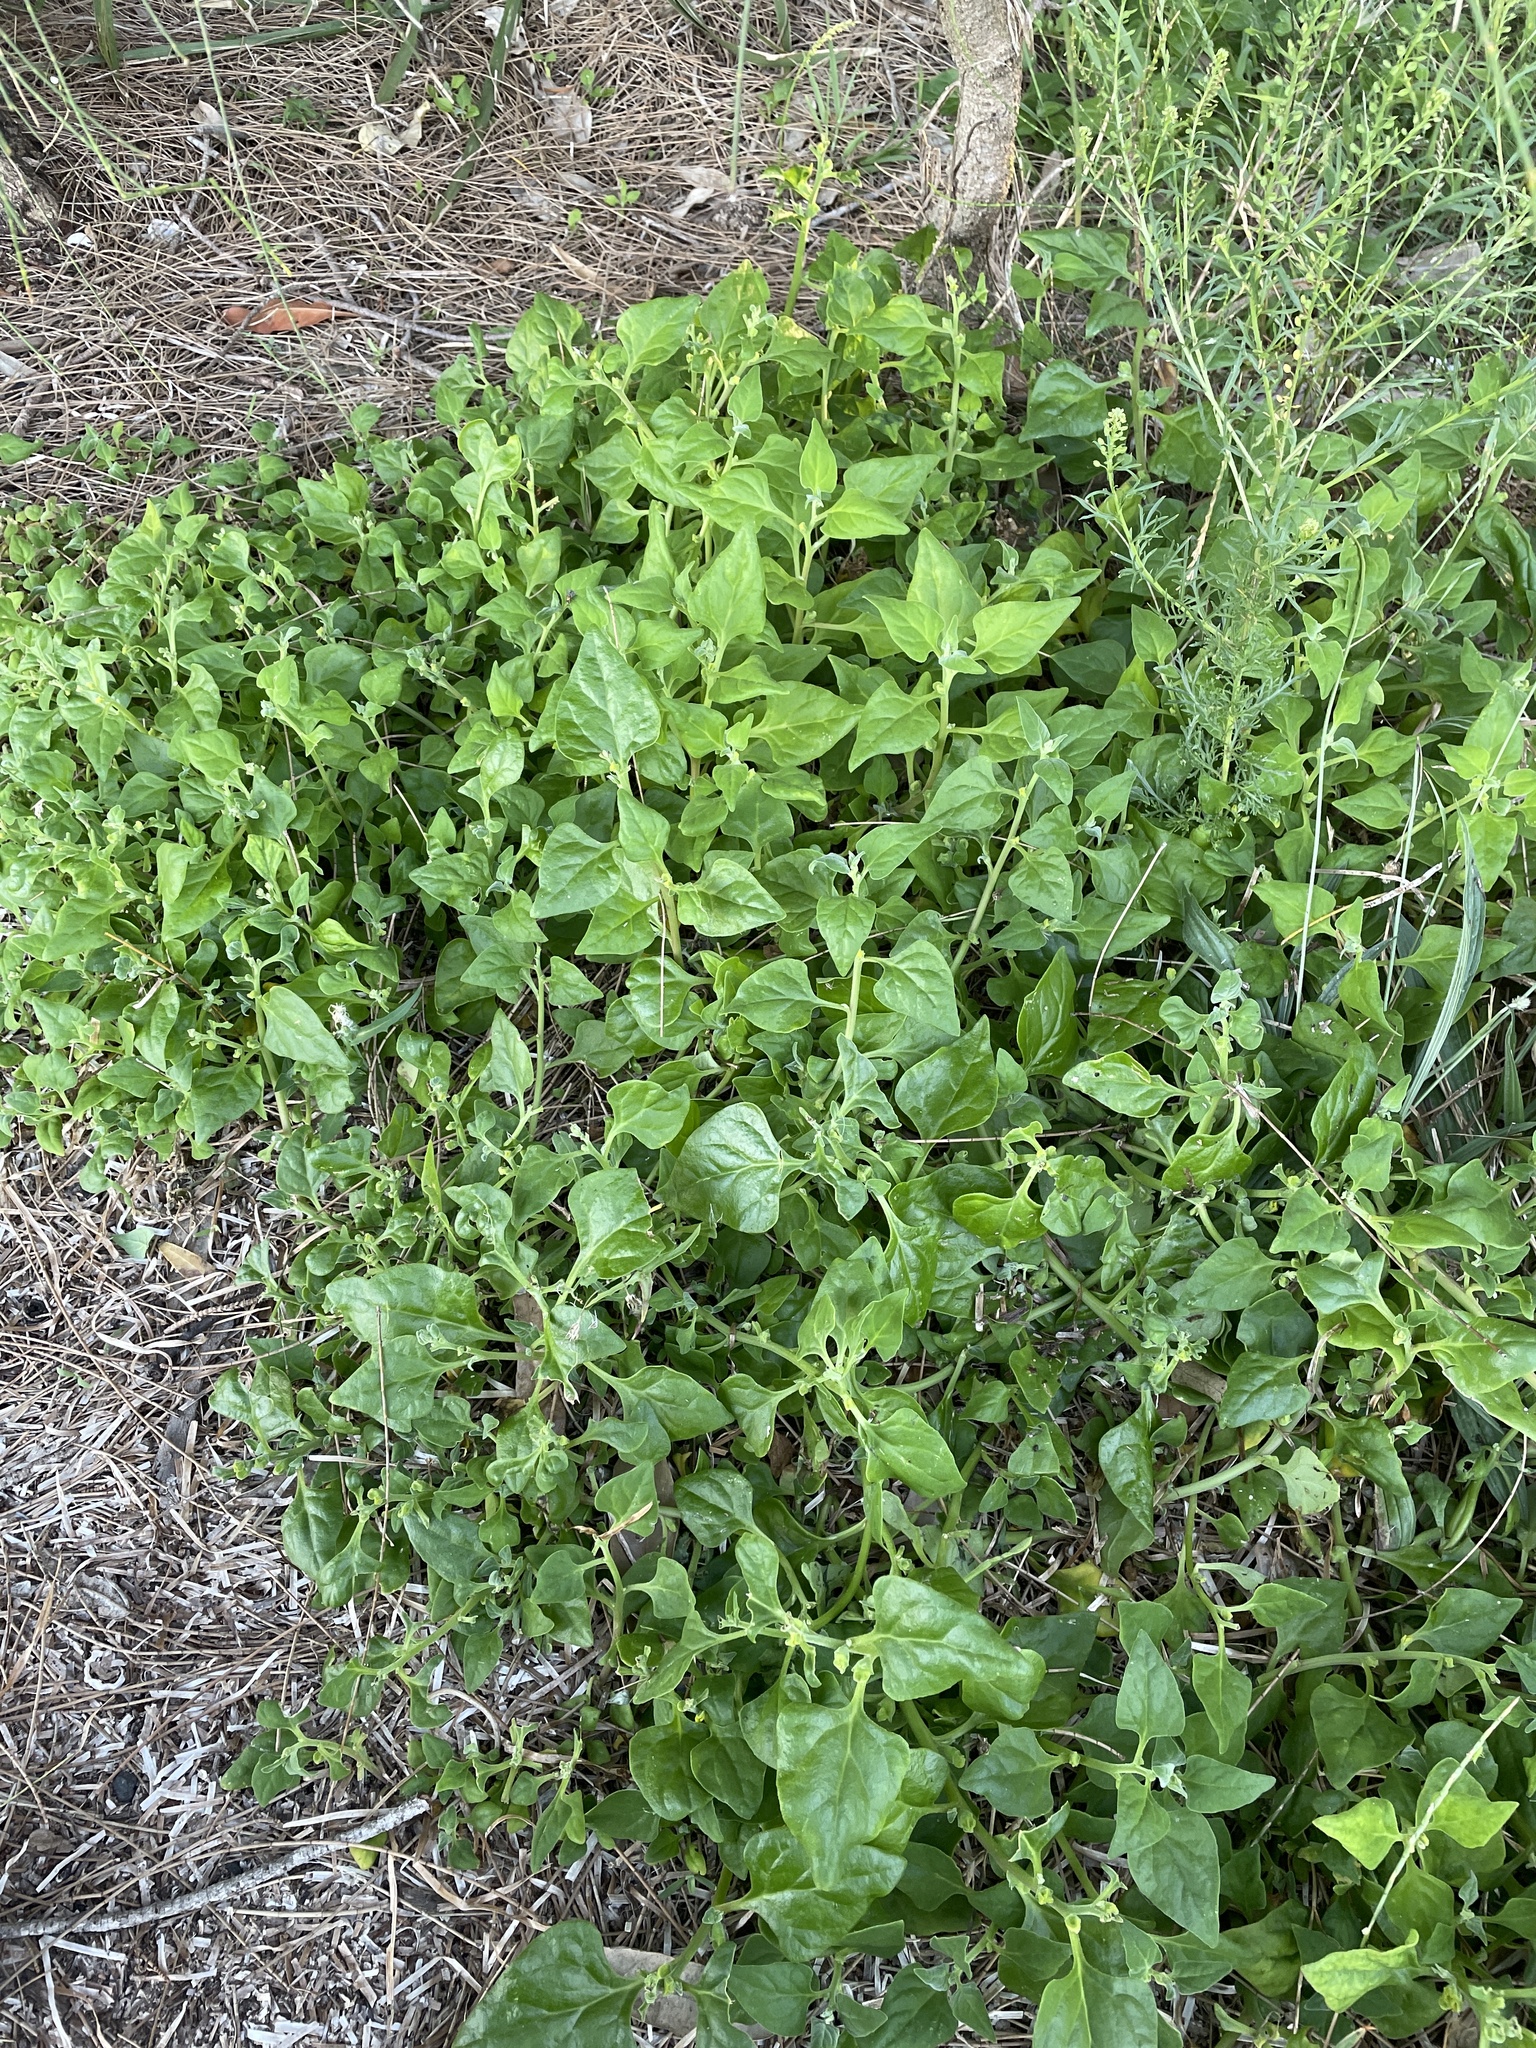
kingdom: Plantae
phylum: Tracheophyta
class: Magnoliopsida
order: Caryophyllales
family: Aizoaceae
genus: Tetragonia
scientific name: Tetragonia tetragonoides
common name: New zealand-spinach
